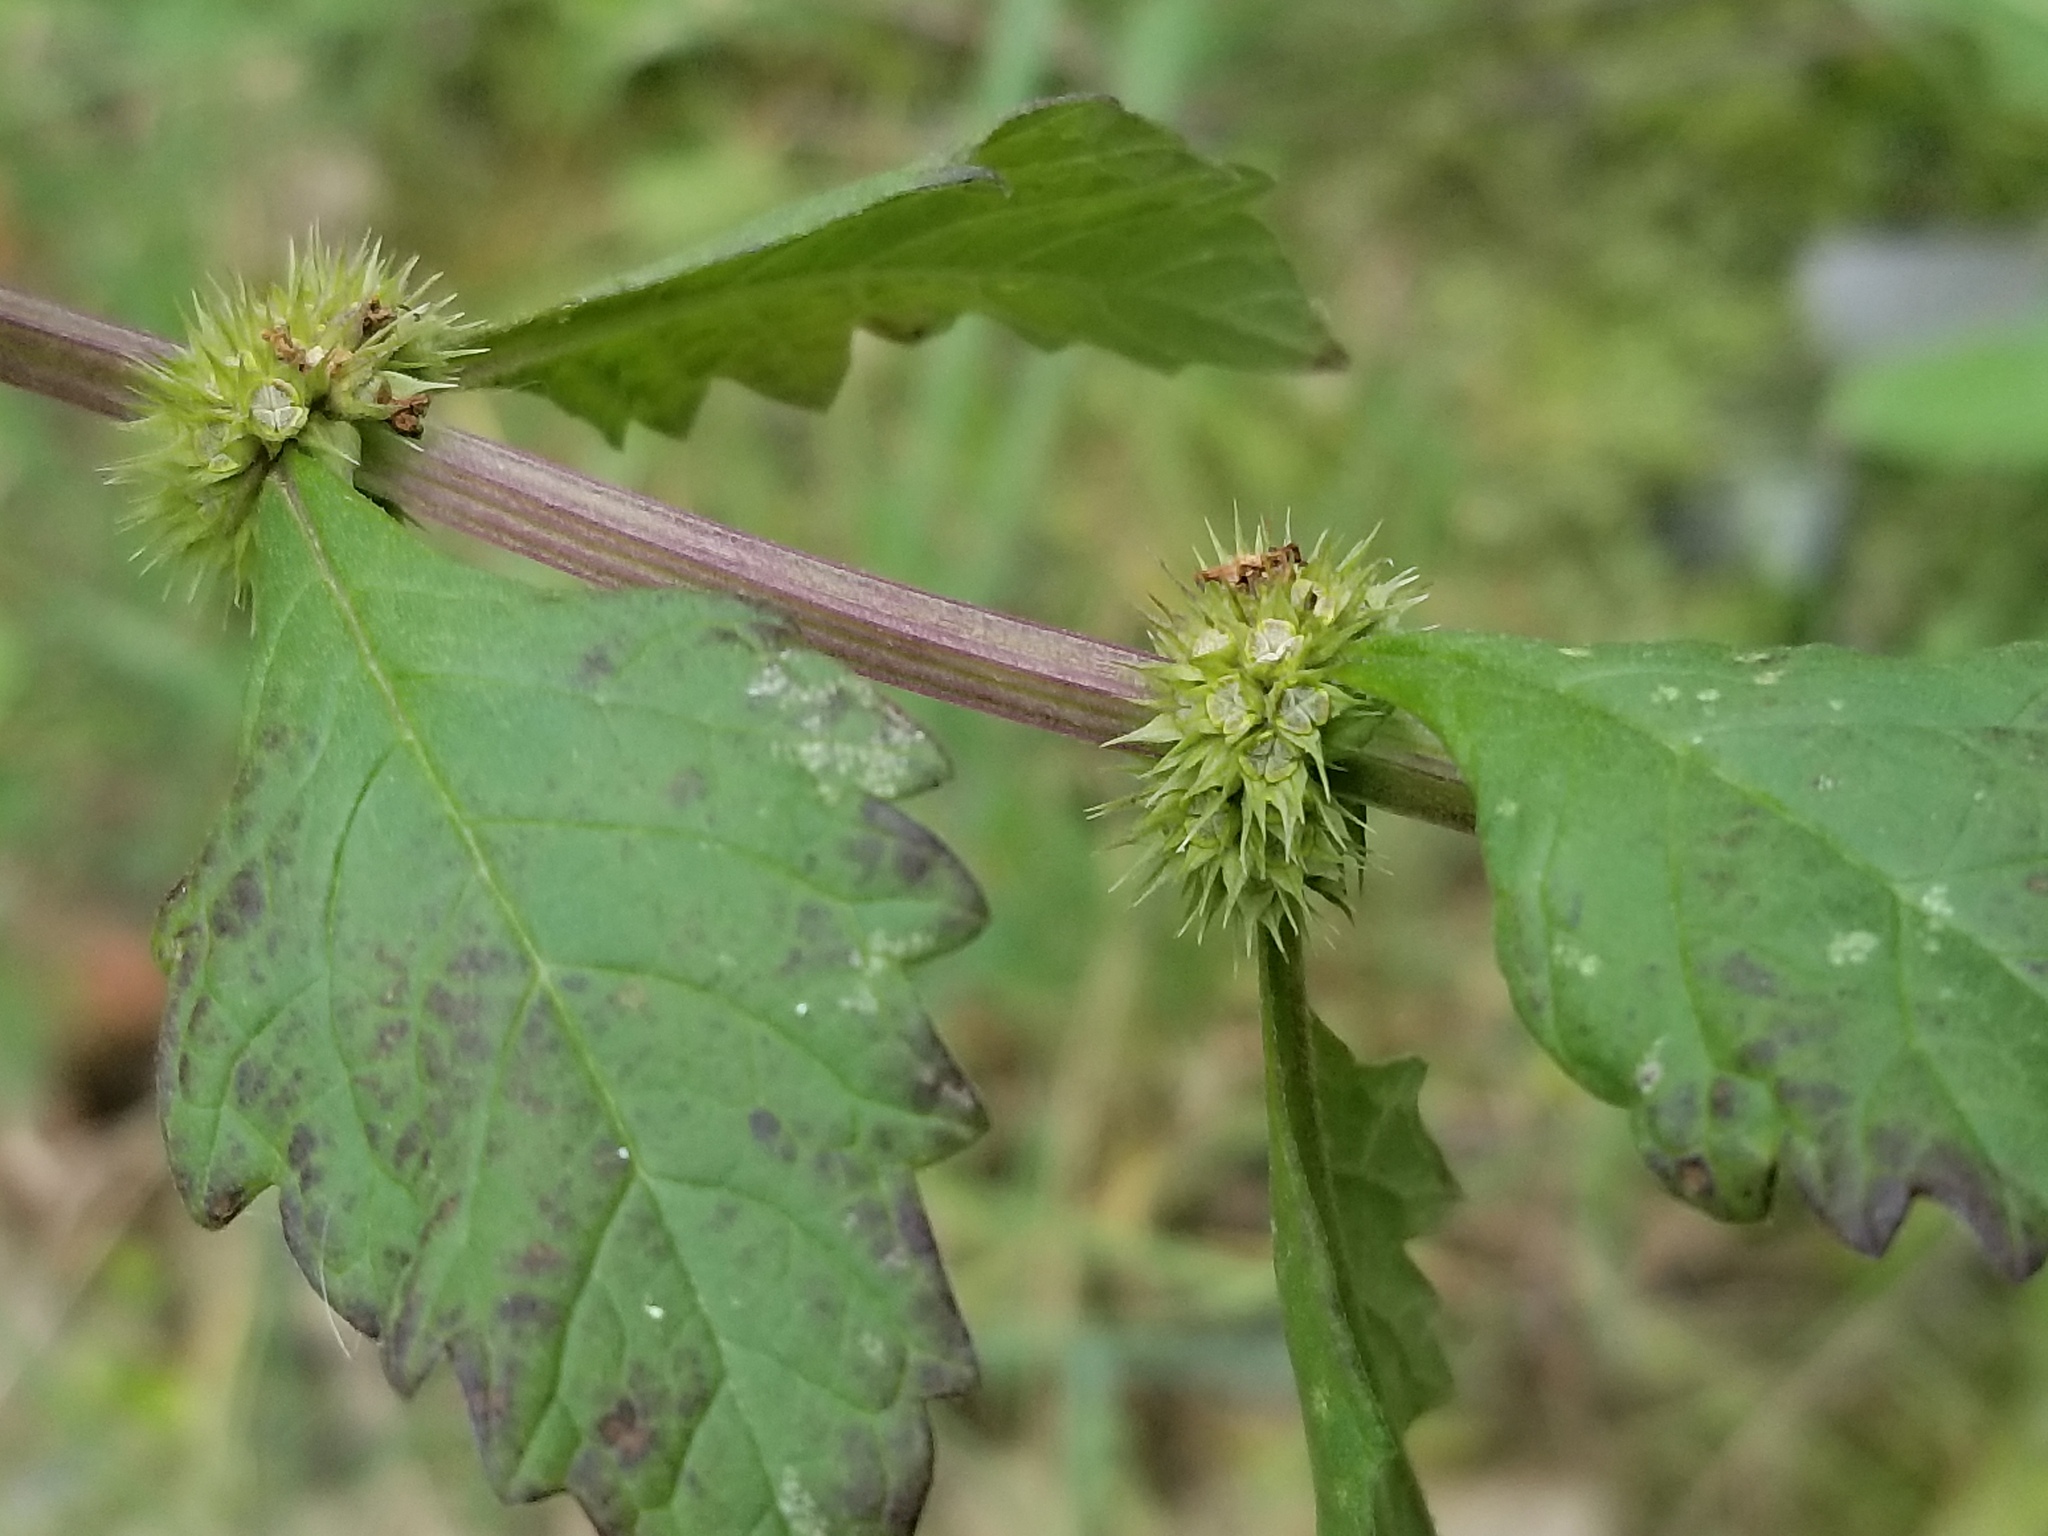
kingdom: Plantae
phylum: Tracheophyta
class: Magnoliopsida
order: Lamiales
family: Lamiaceae
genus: Lycopus
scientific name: Lycopus europaeus
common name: European bugleweed
